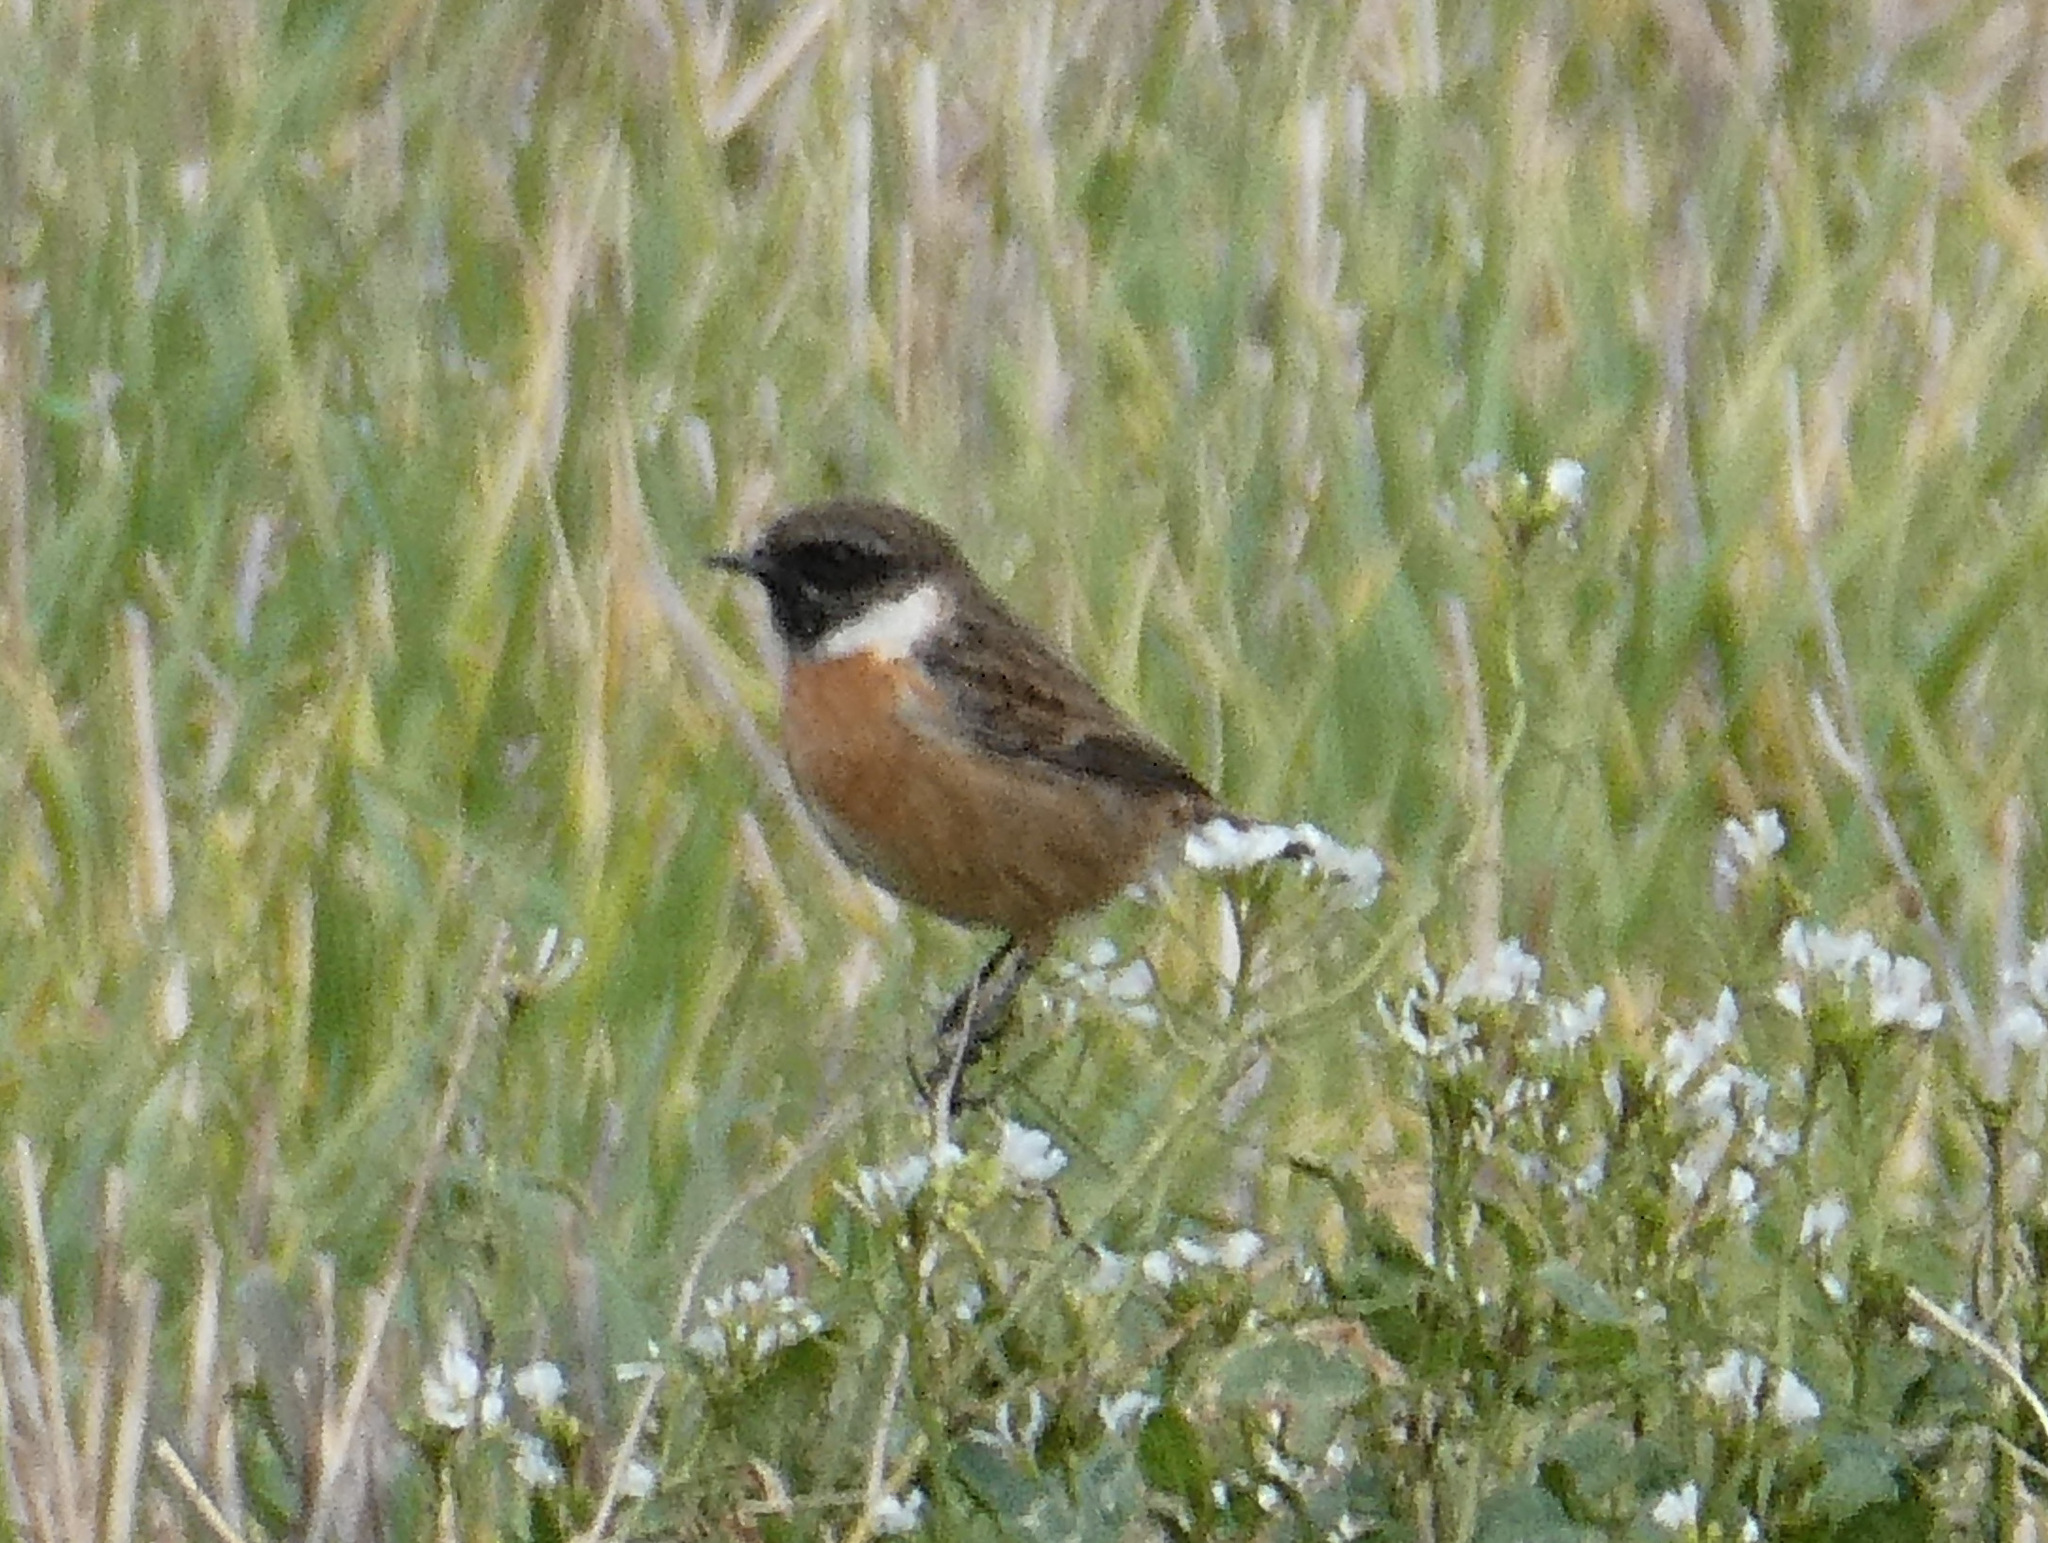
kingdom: Animalia
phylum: Chordata
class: Aves
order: Passeriformes
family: Muscicapidae
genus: Saxicola
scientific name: Saxicola rubicola
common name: European stonechat
